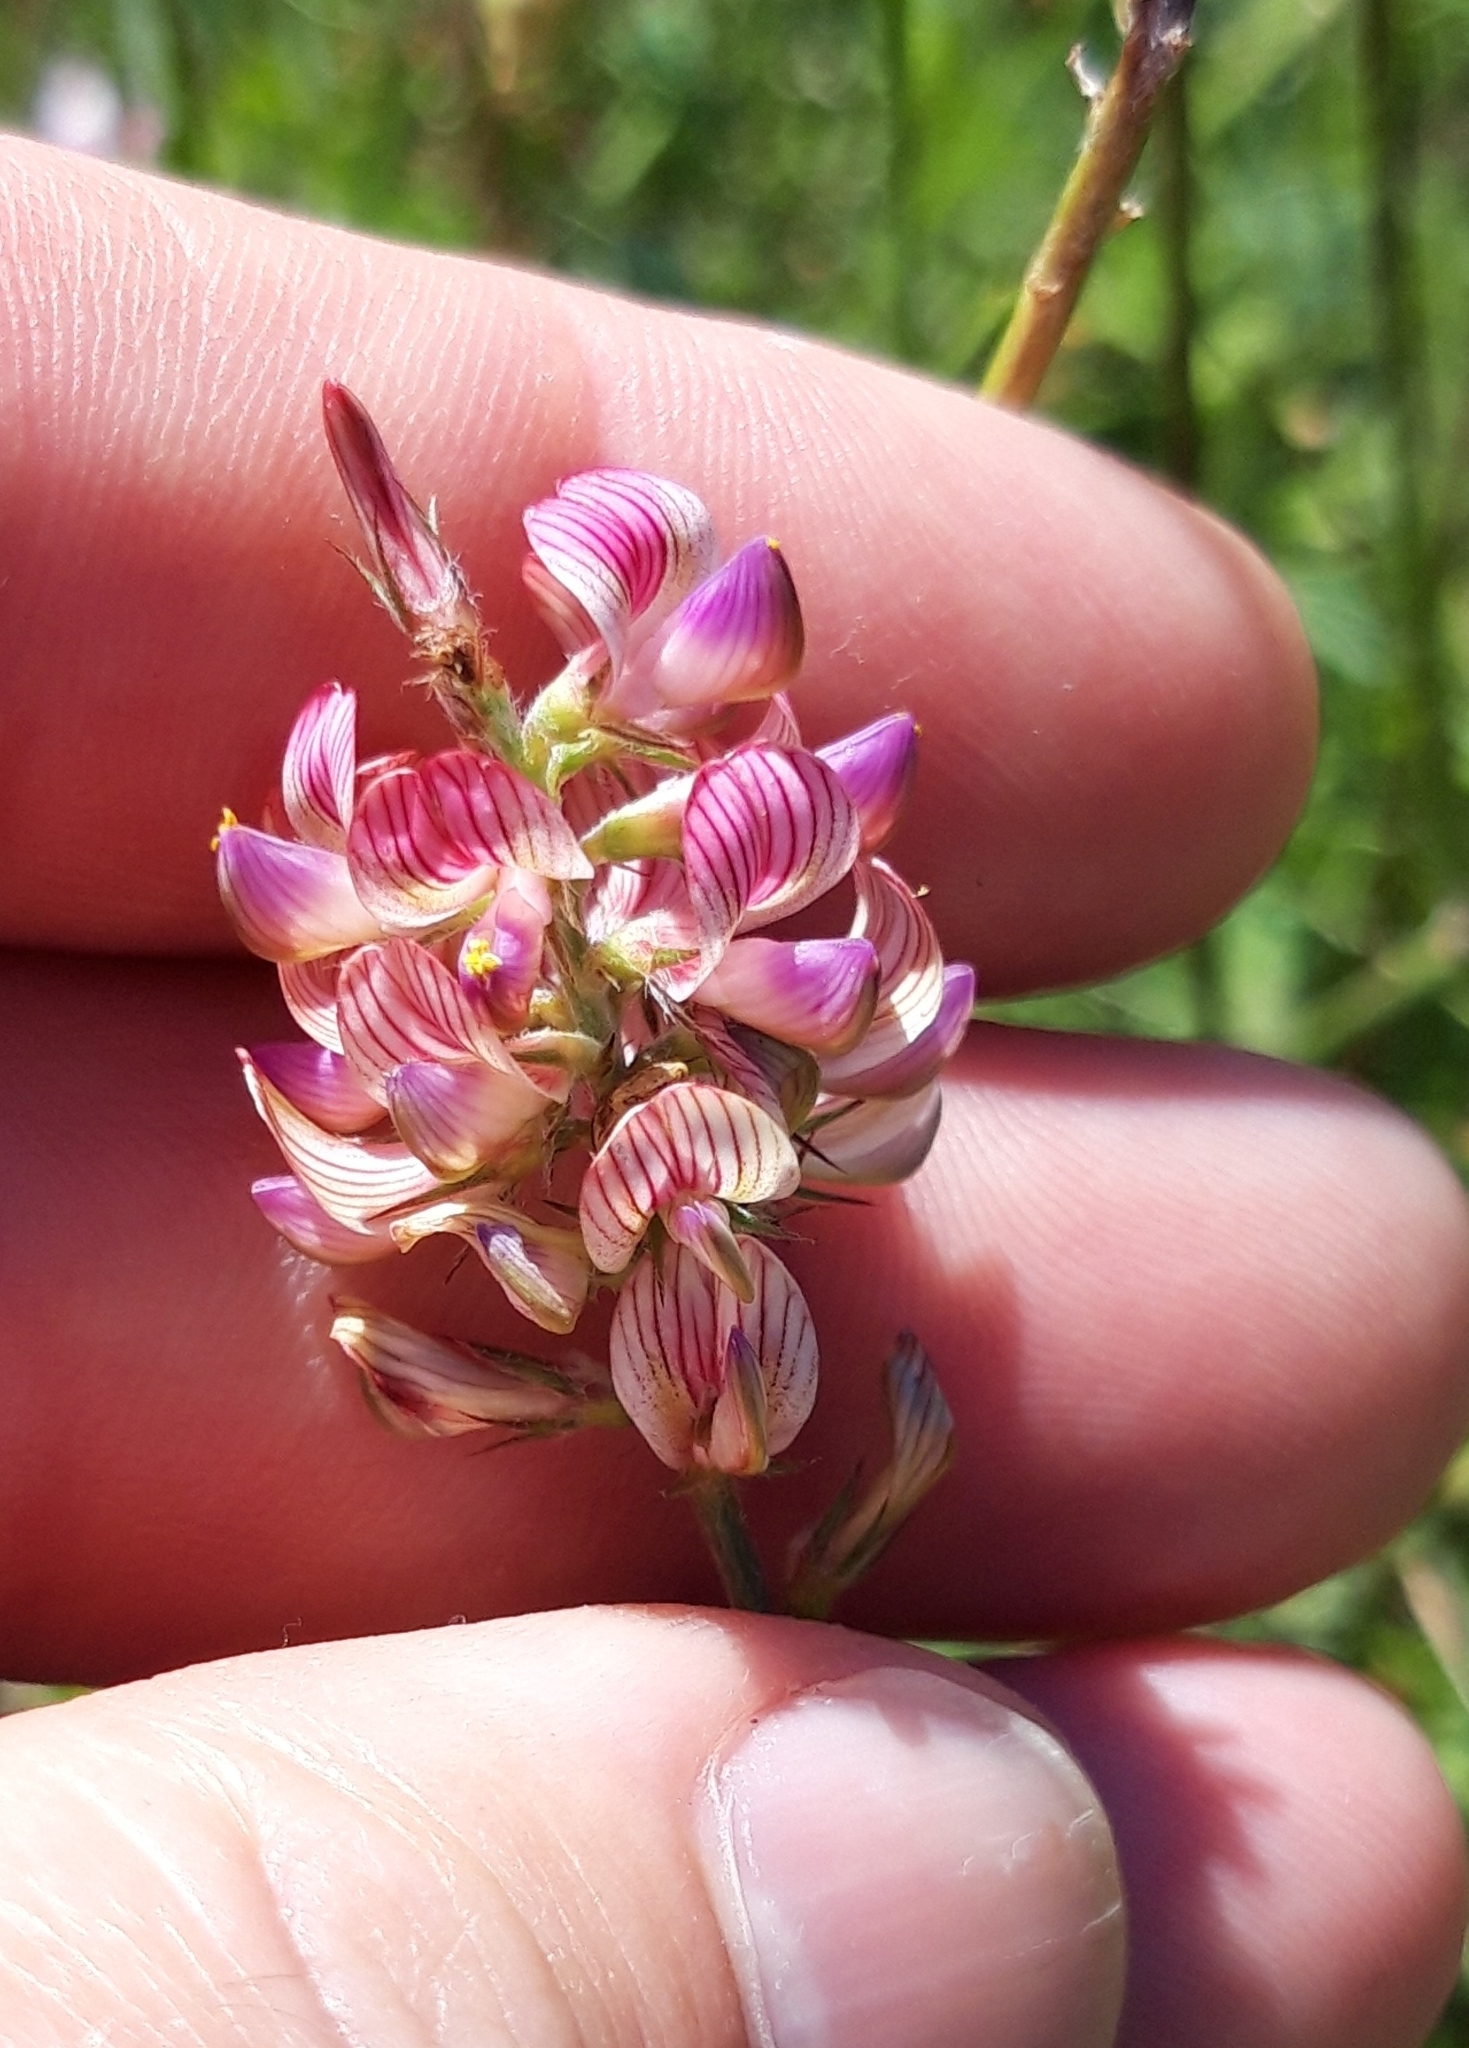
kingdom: Plantae
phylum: Tracheophyta
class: Magnoliopsida
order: Fabales
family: Fabaceae
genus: Onobrychis
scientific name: Onobrychis viciifolia
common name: Sainfoin
